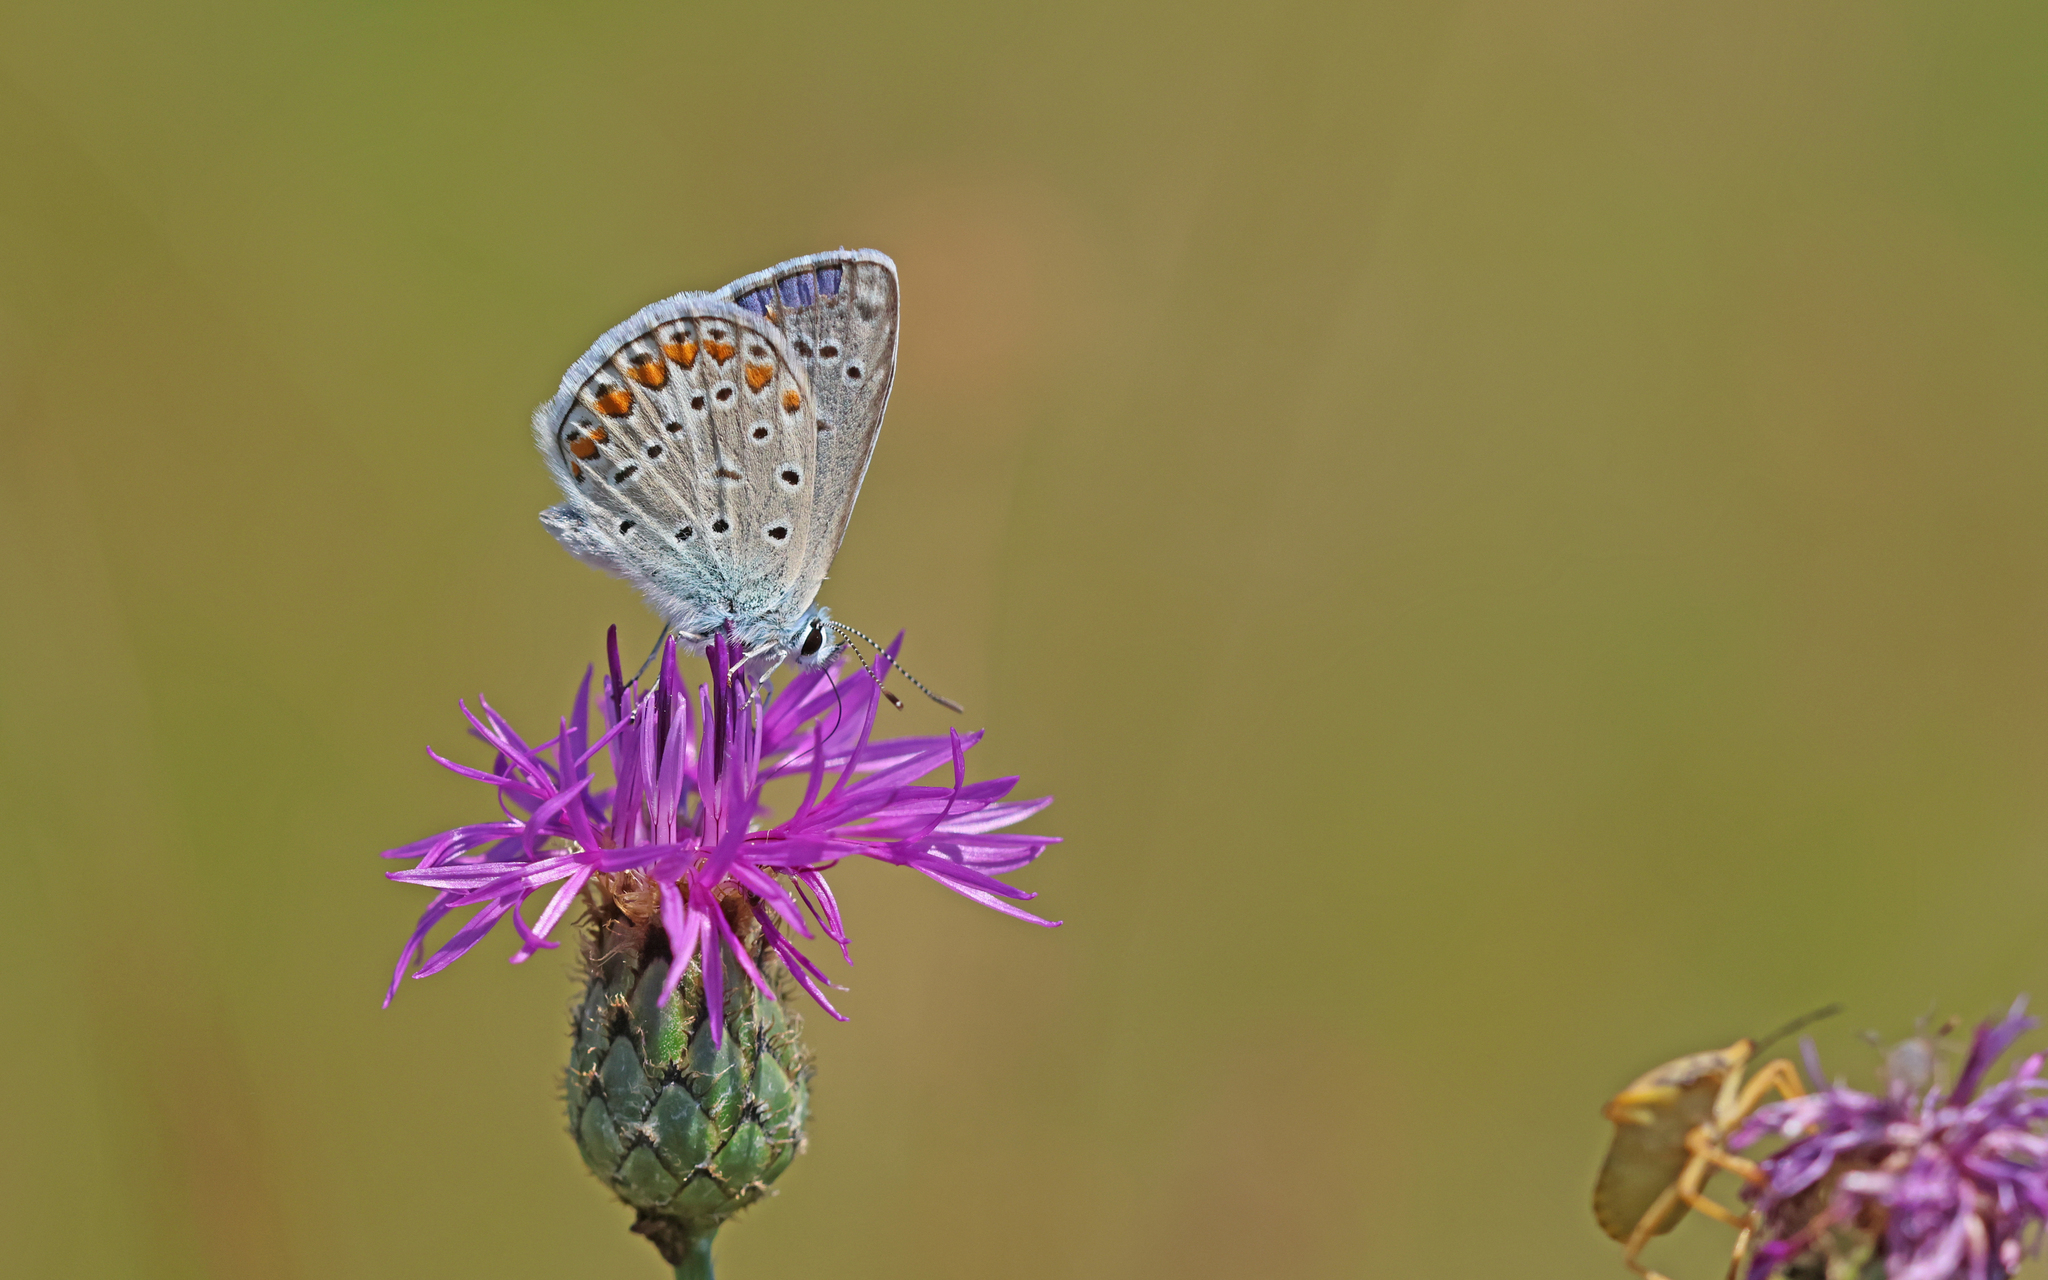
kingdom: Animalia
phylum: Arthropoda
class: Insecta
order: Lepidoptera
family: Lycaenidae
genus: Polyommatus
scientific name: Polyommatus icarus
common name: Common blue
